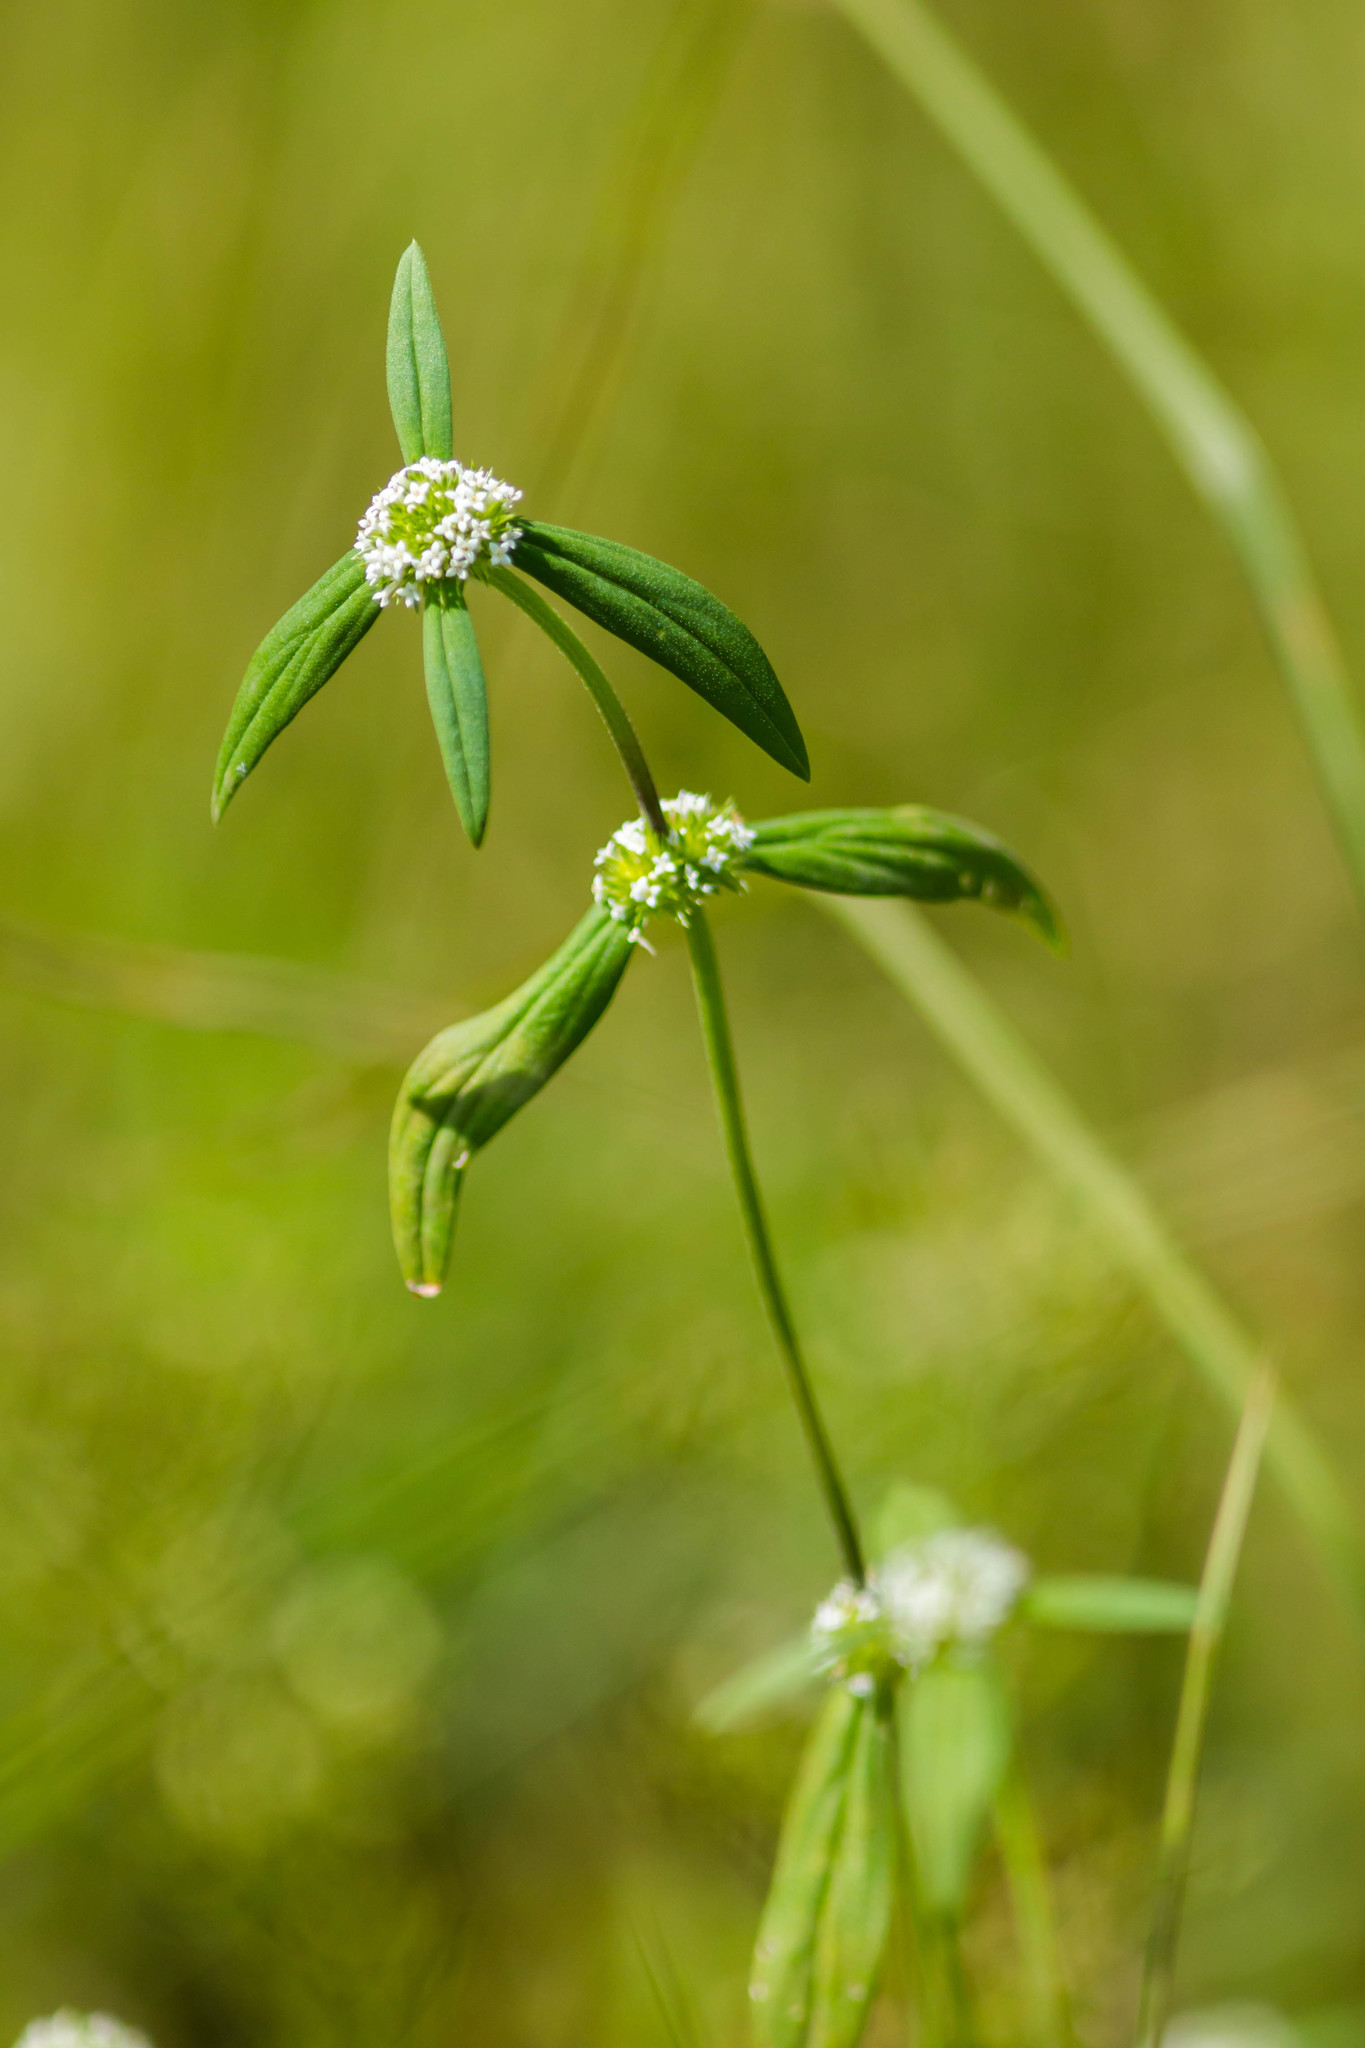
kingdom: Plantae
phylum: Tracheophyta
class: Magnoliopsida
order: Gentianales
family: Rubiaceae
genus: Mitracarpus
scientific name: Mitracarpus hirtus
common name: Tropical girdlepod
